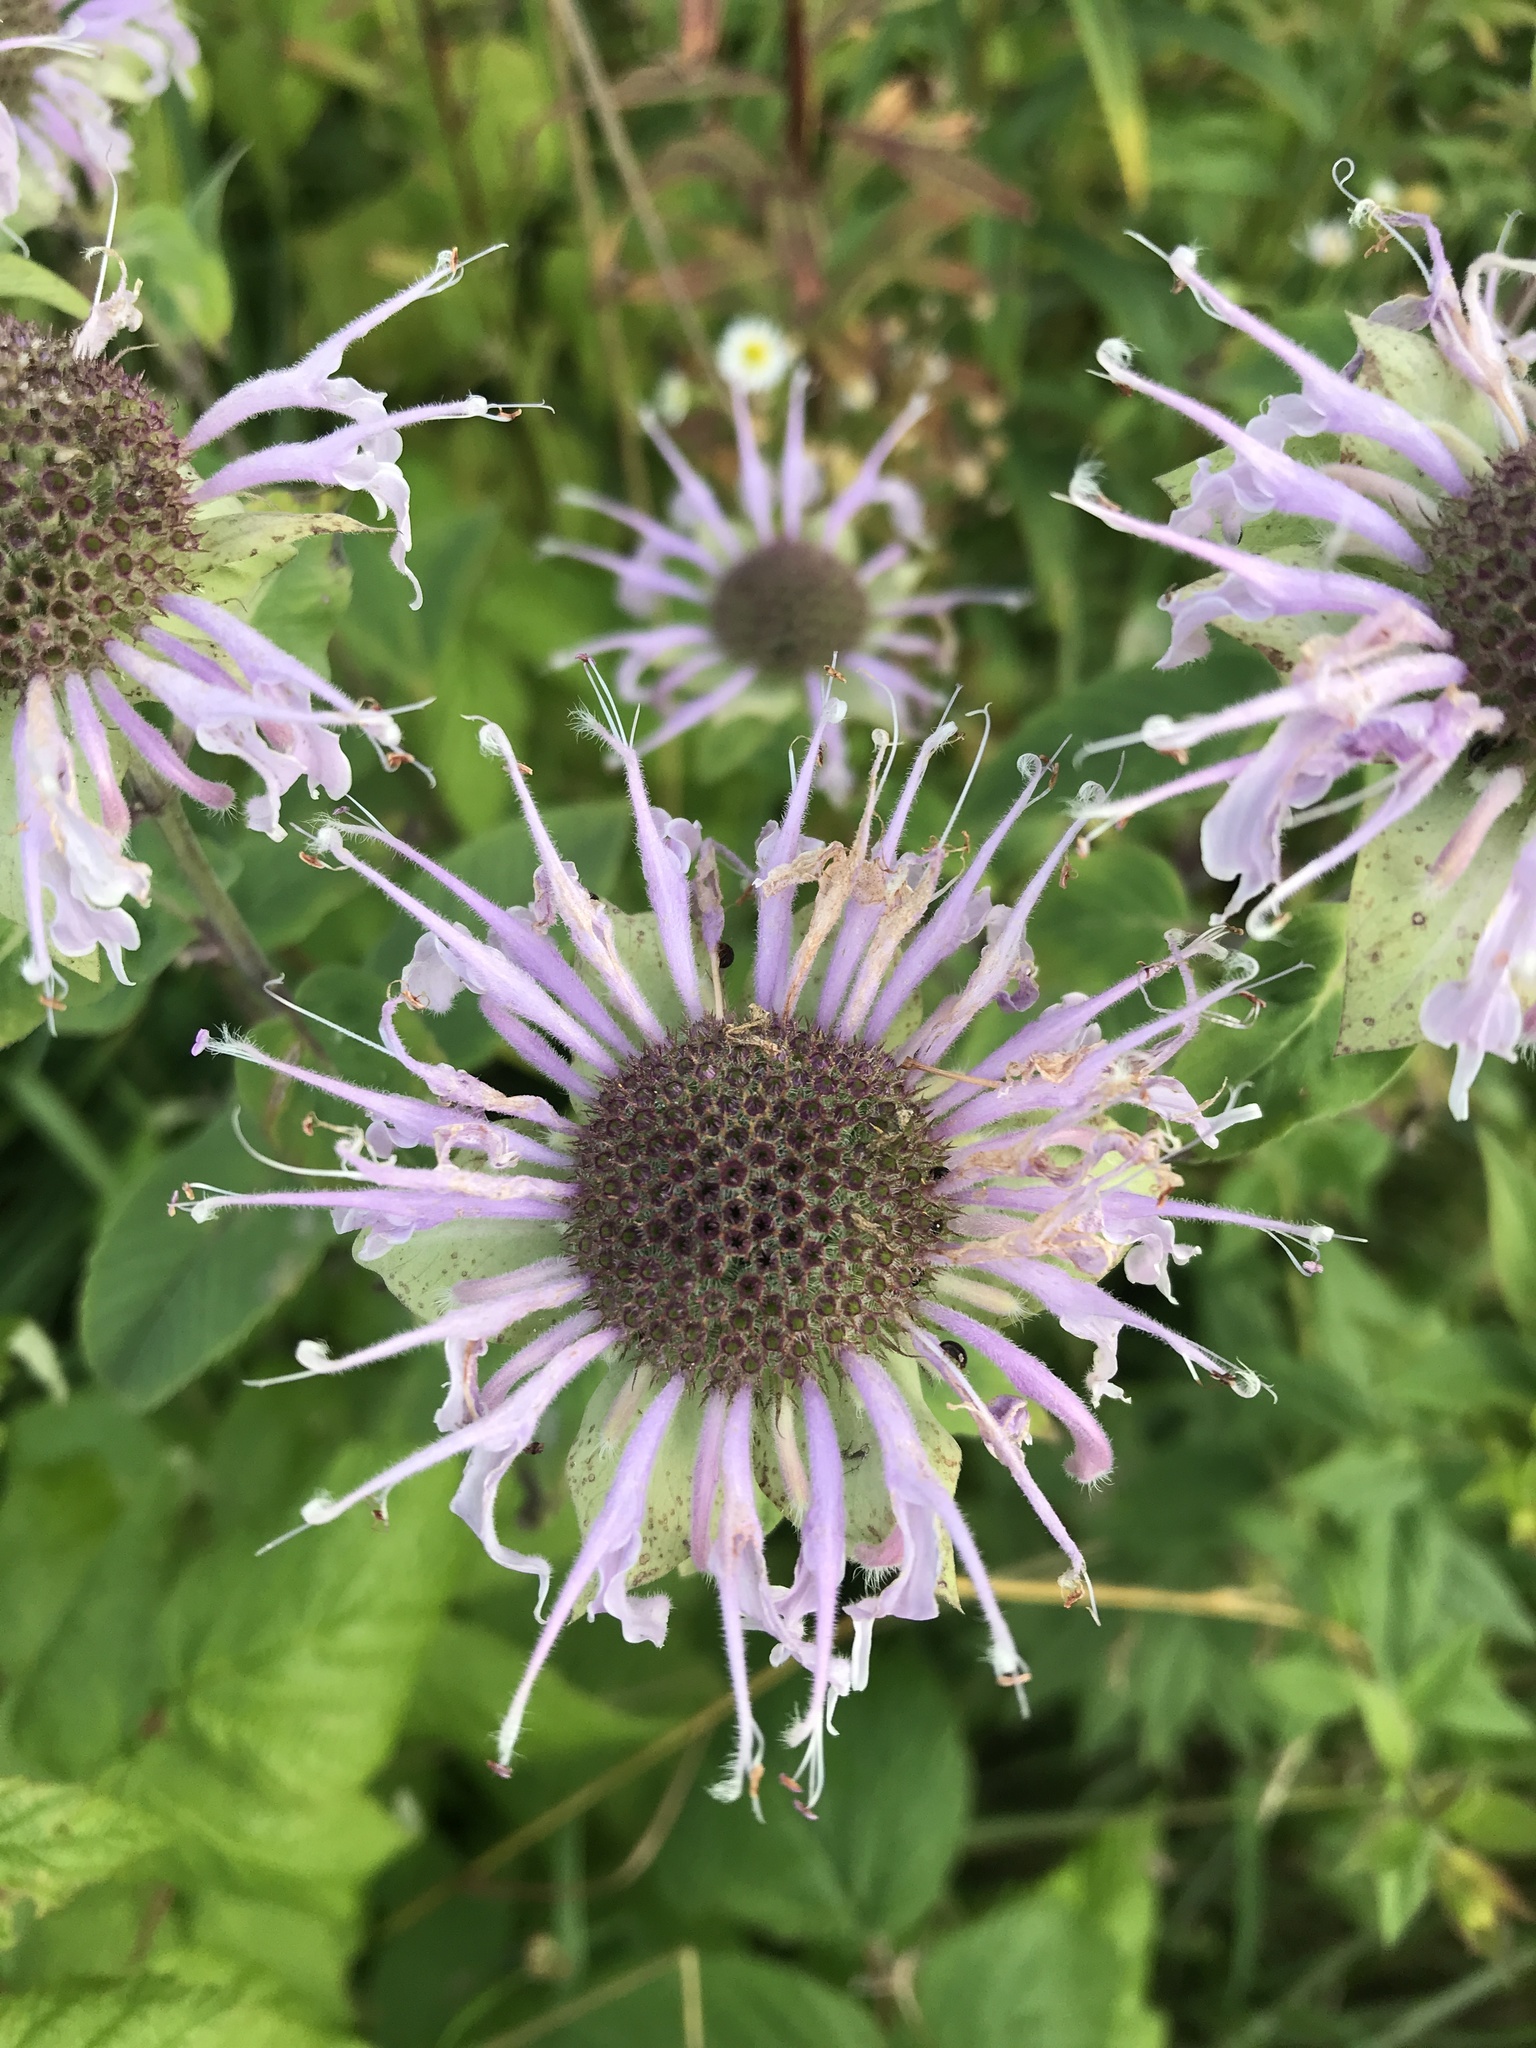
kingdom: Plantae
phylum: Tracheophyta
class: Magnoliopsida
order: Lamiales
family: Lamiaceae
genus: Monarda
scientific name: Monarda fistulosa
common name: Purple beebalm
